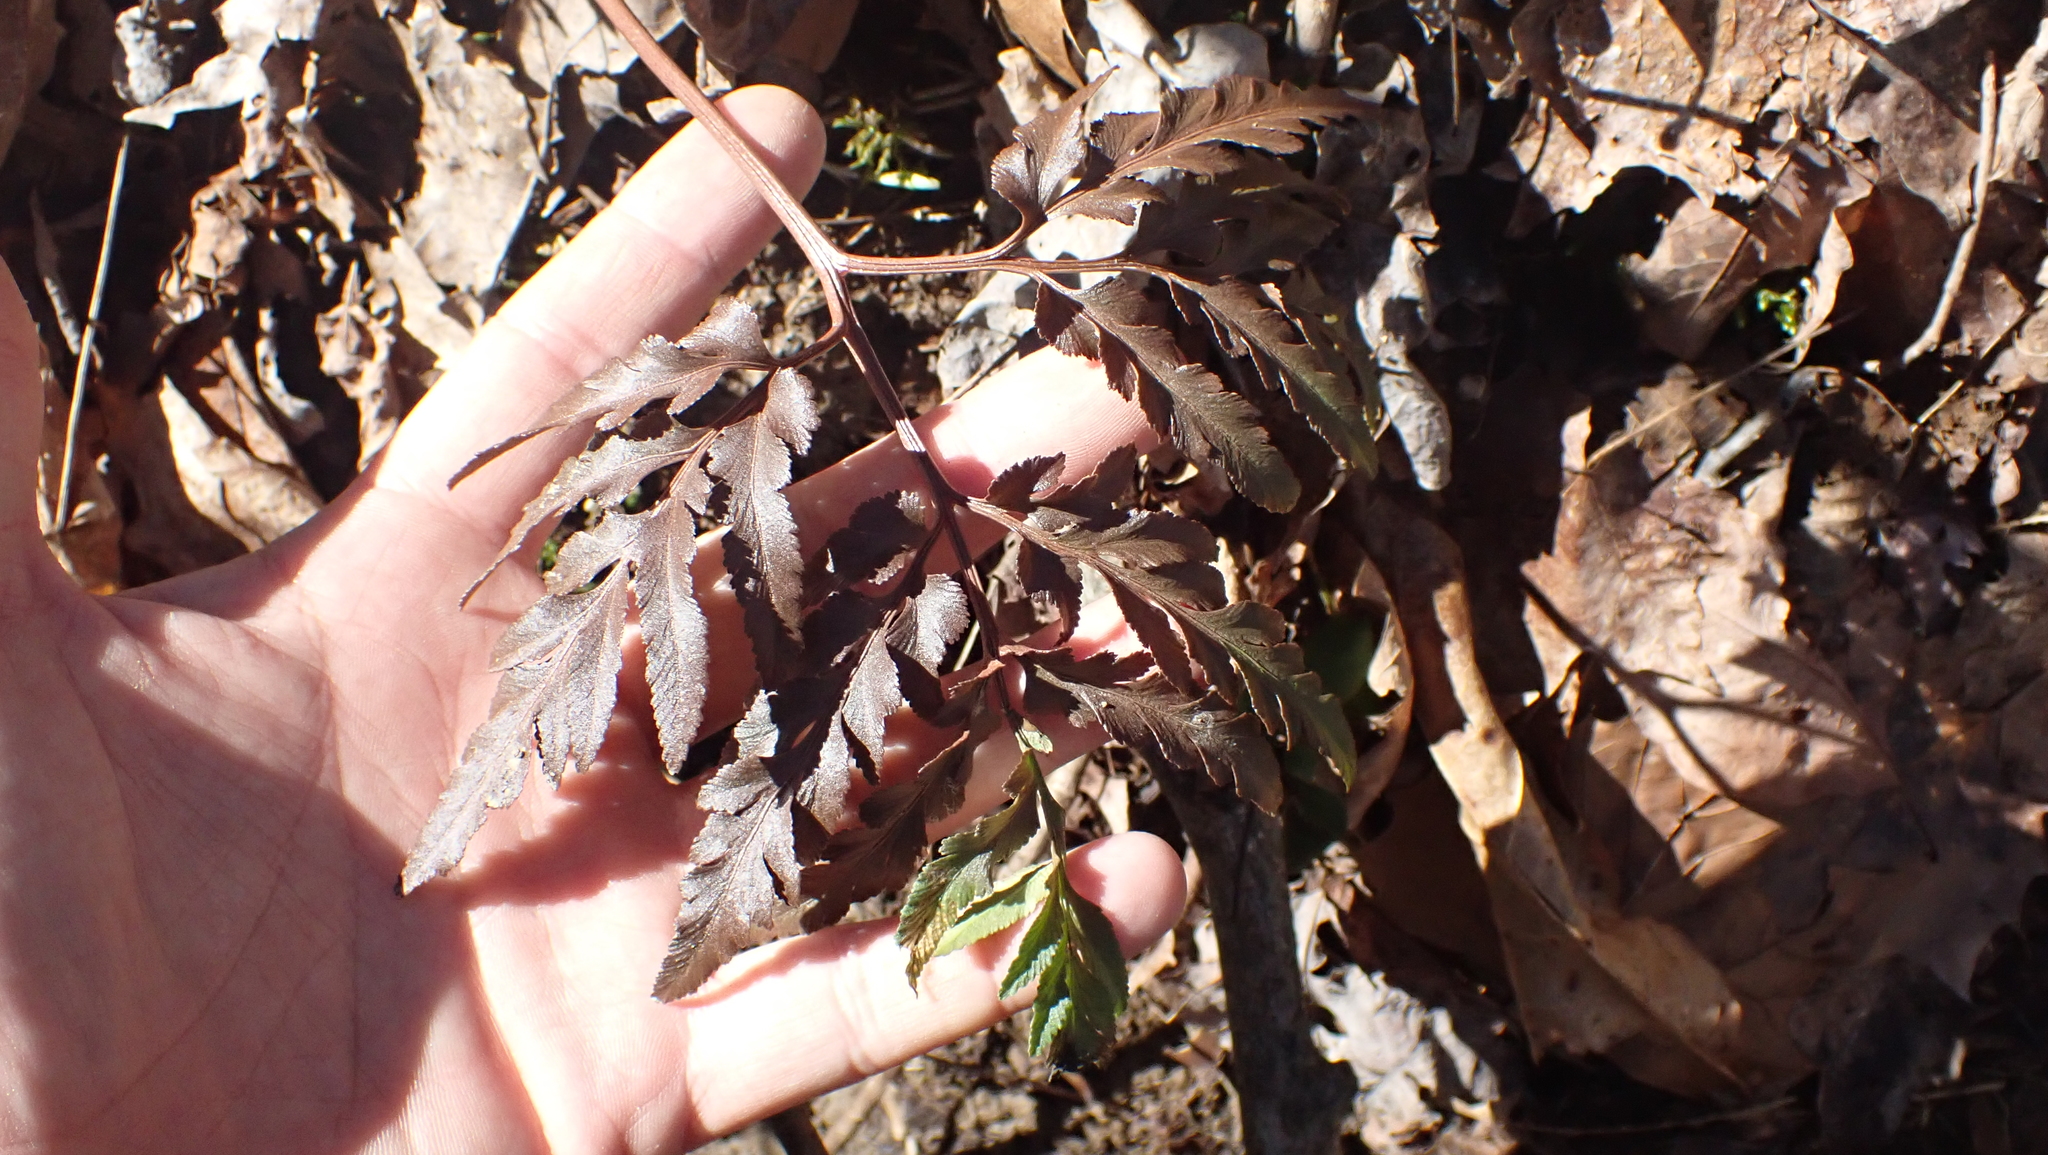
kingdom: Plantae
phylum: Tracheophyta
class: Polypodiopsida
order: Ophioglossales
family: Ophioglossaceae
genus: Sceptridium
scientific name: Sceptridium dissectum
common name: Cut-leaved grapefern
